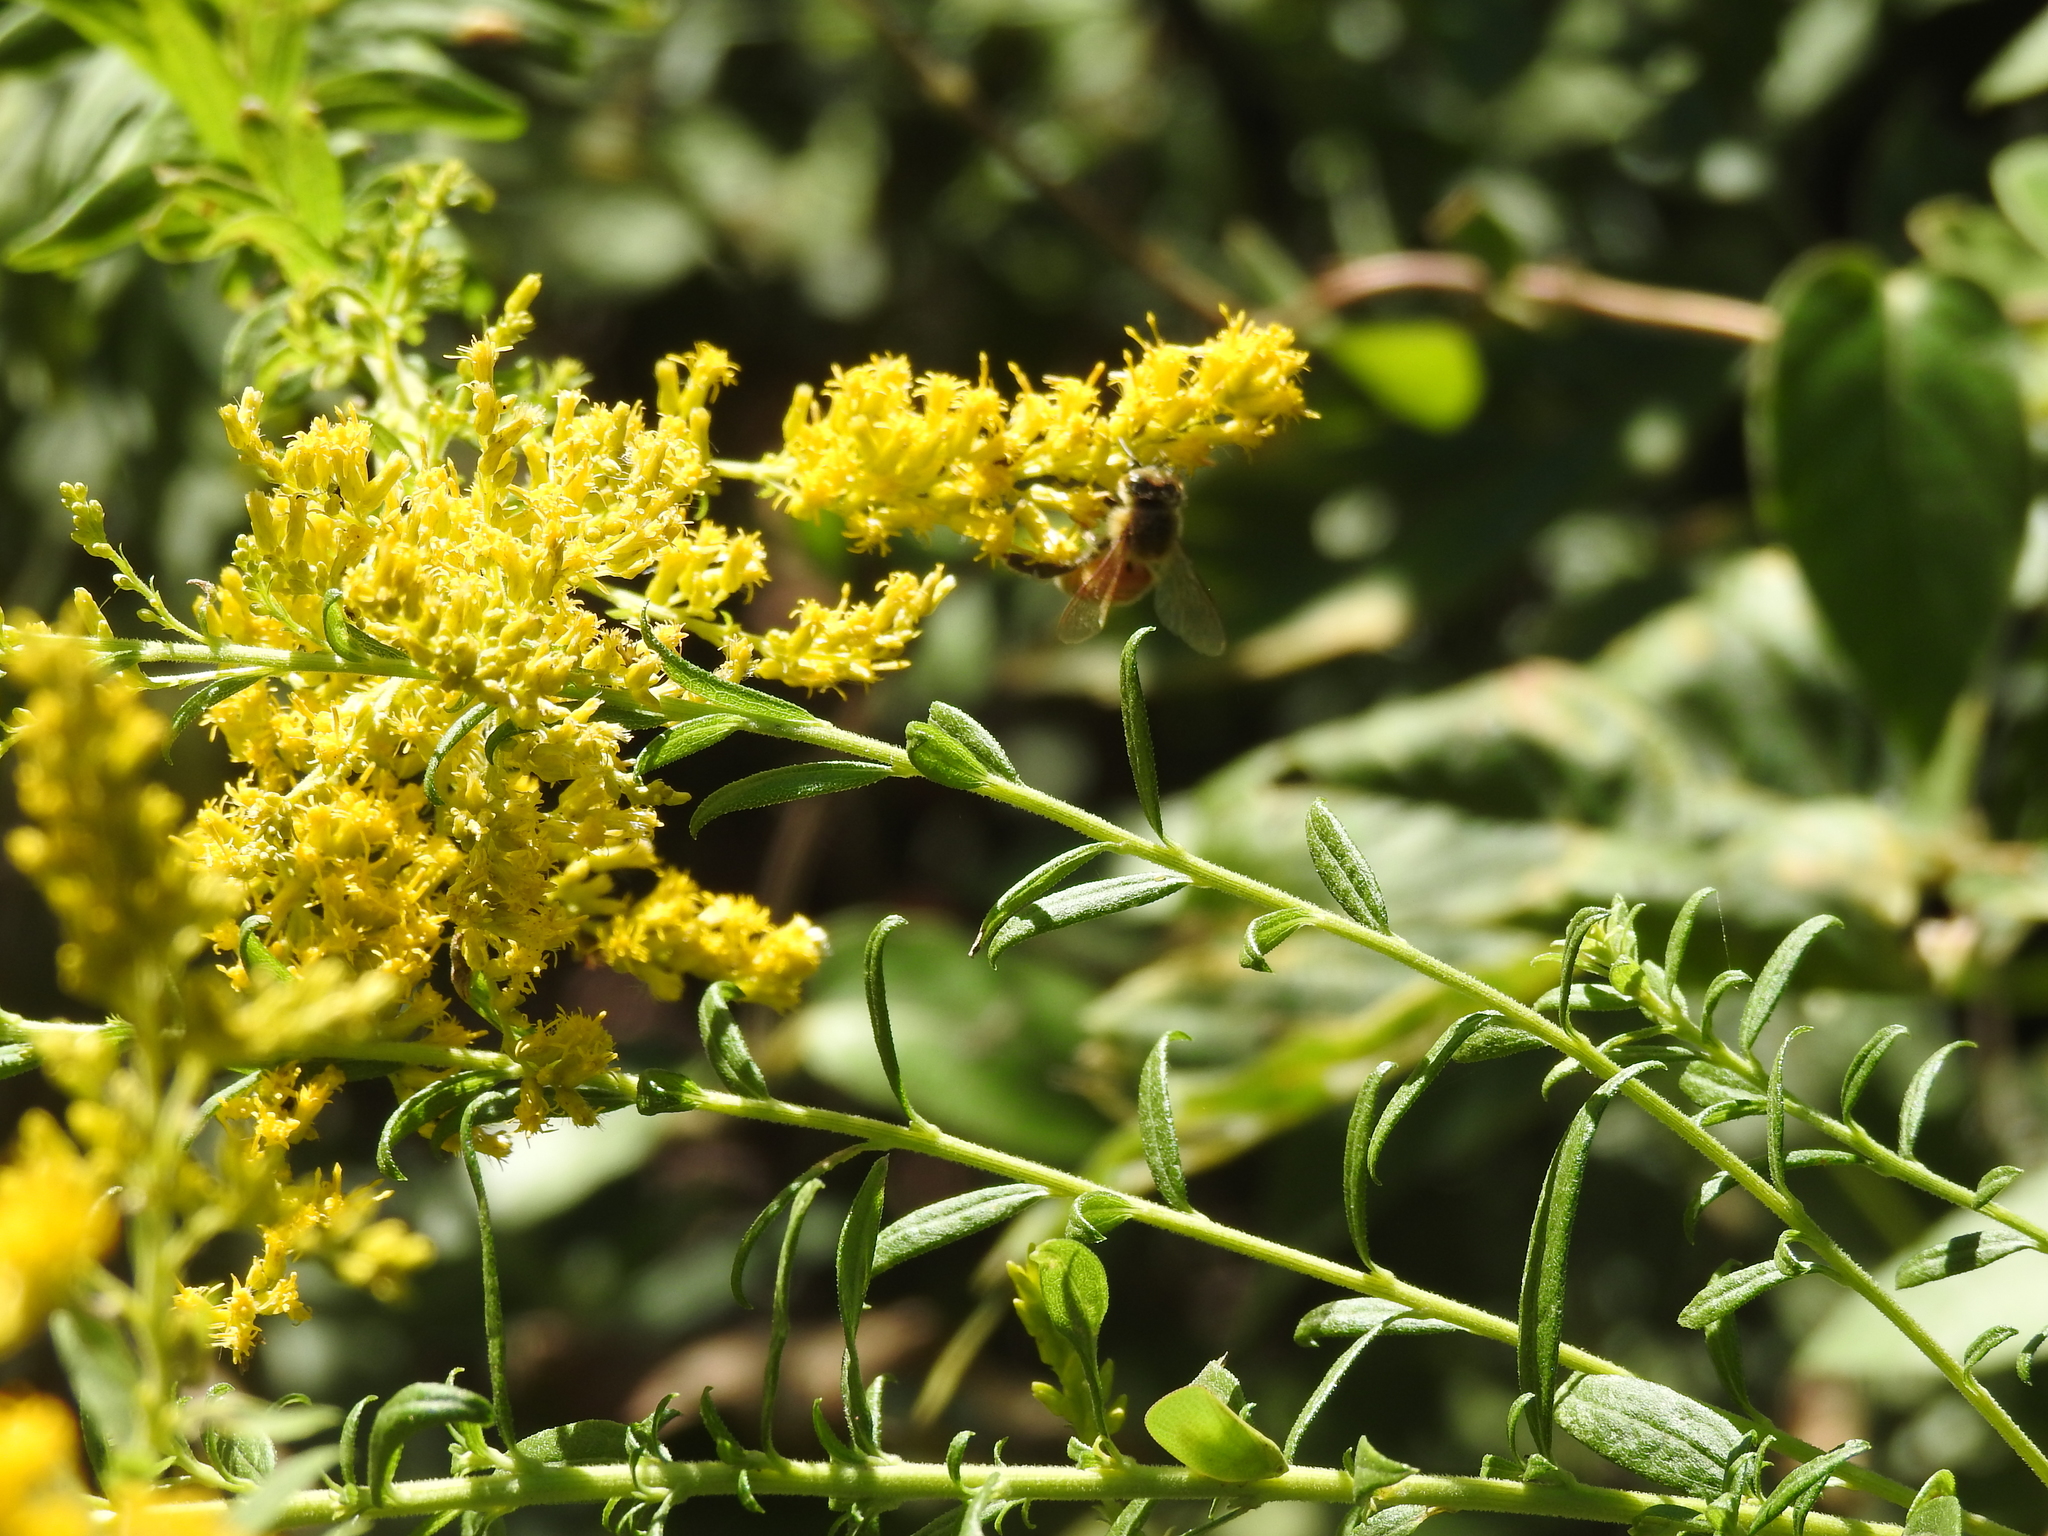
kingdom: Plantae
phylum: Tracheophyta
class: Magnoliopsida
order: Asterales
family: Asteraceae
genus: Solidago
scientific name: Solidago altissima
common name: Late goldenrod
